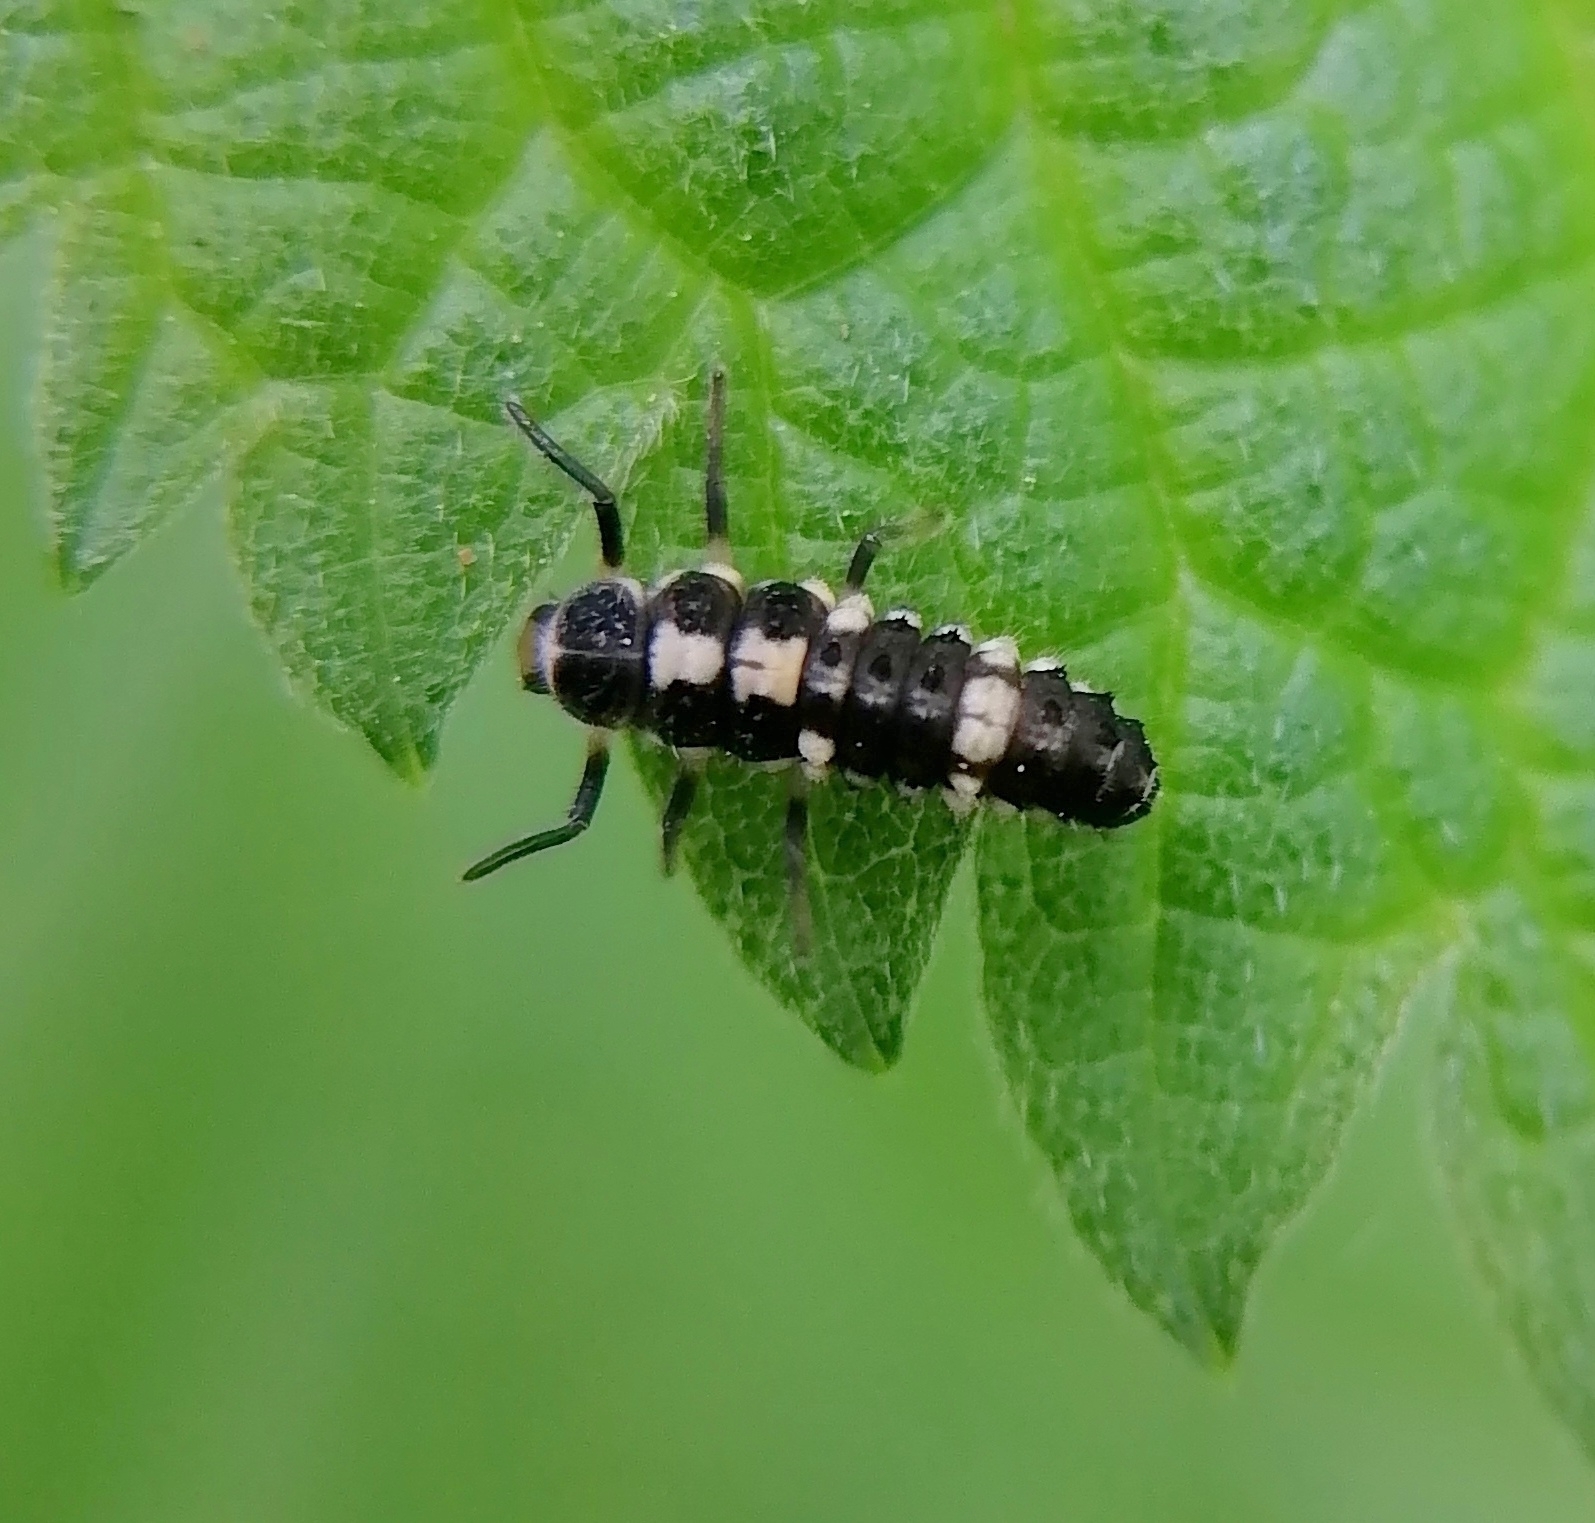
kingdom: Animalia
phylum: Arthropoda
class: Insecta
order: Coleoptera
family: Coccinellidae
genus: Propylaea
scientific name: Propylaea quatuordecimpunctata
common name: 14-spotted ladybird beetle
